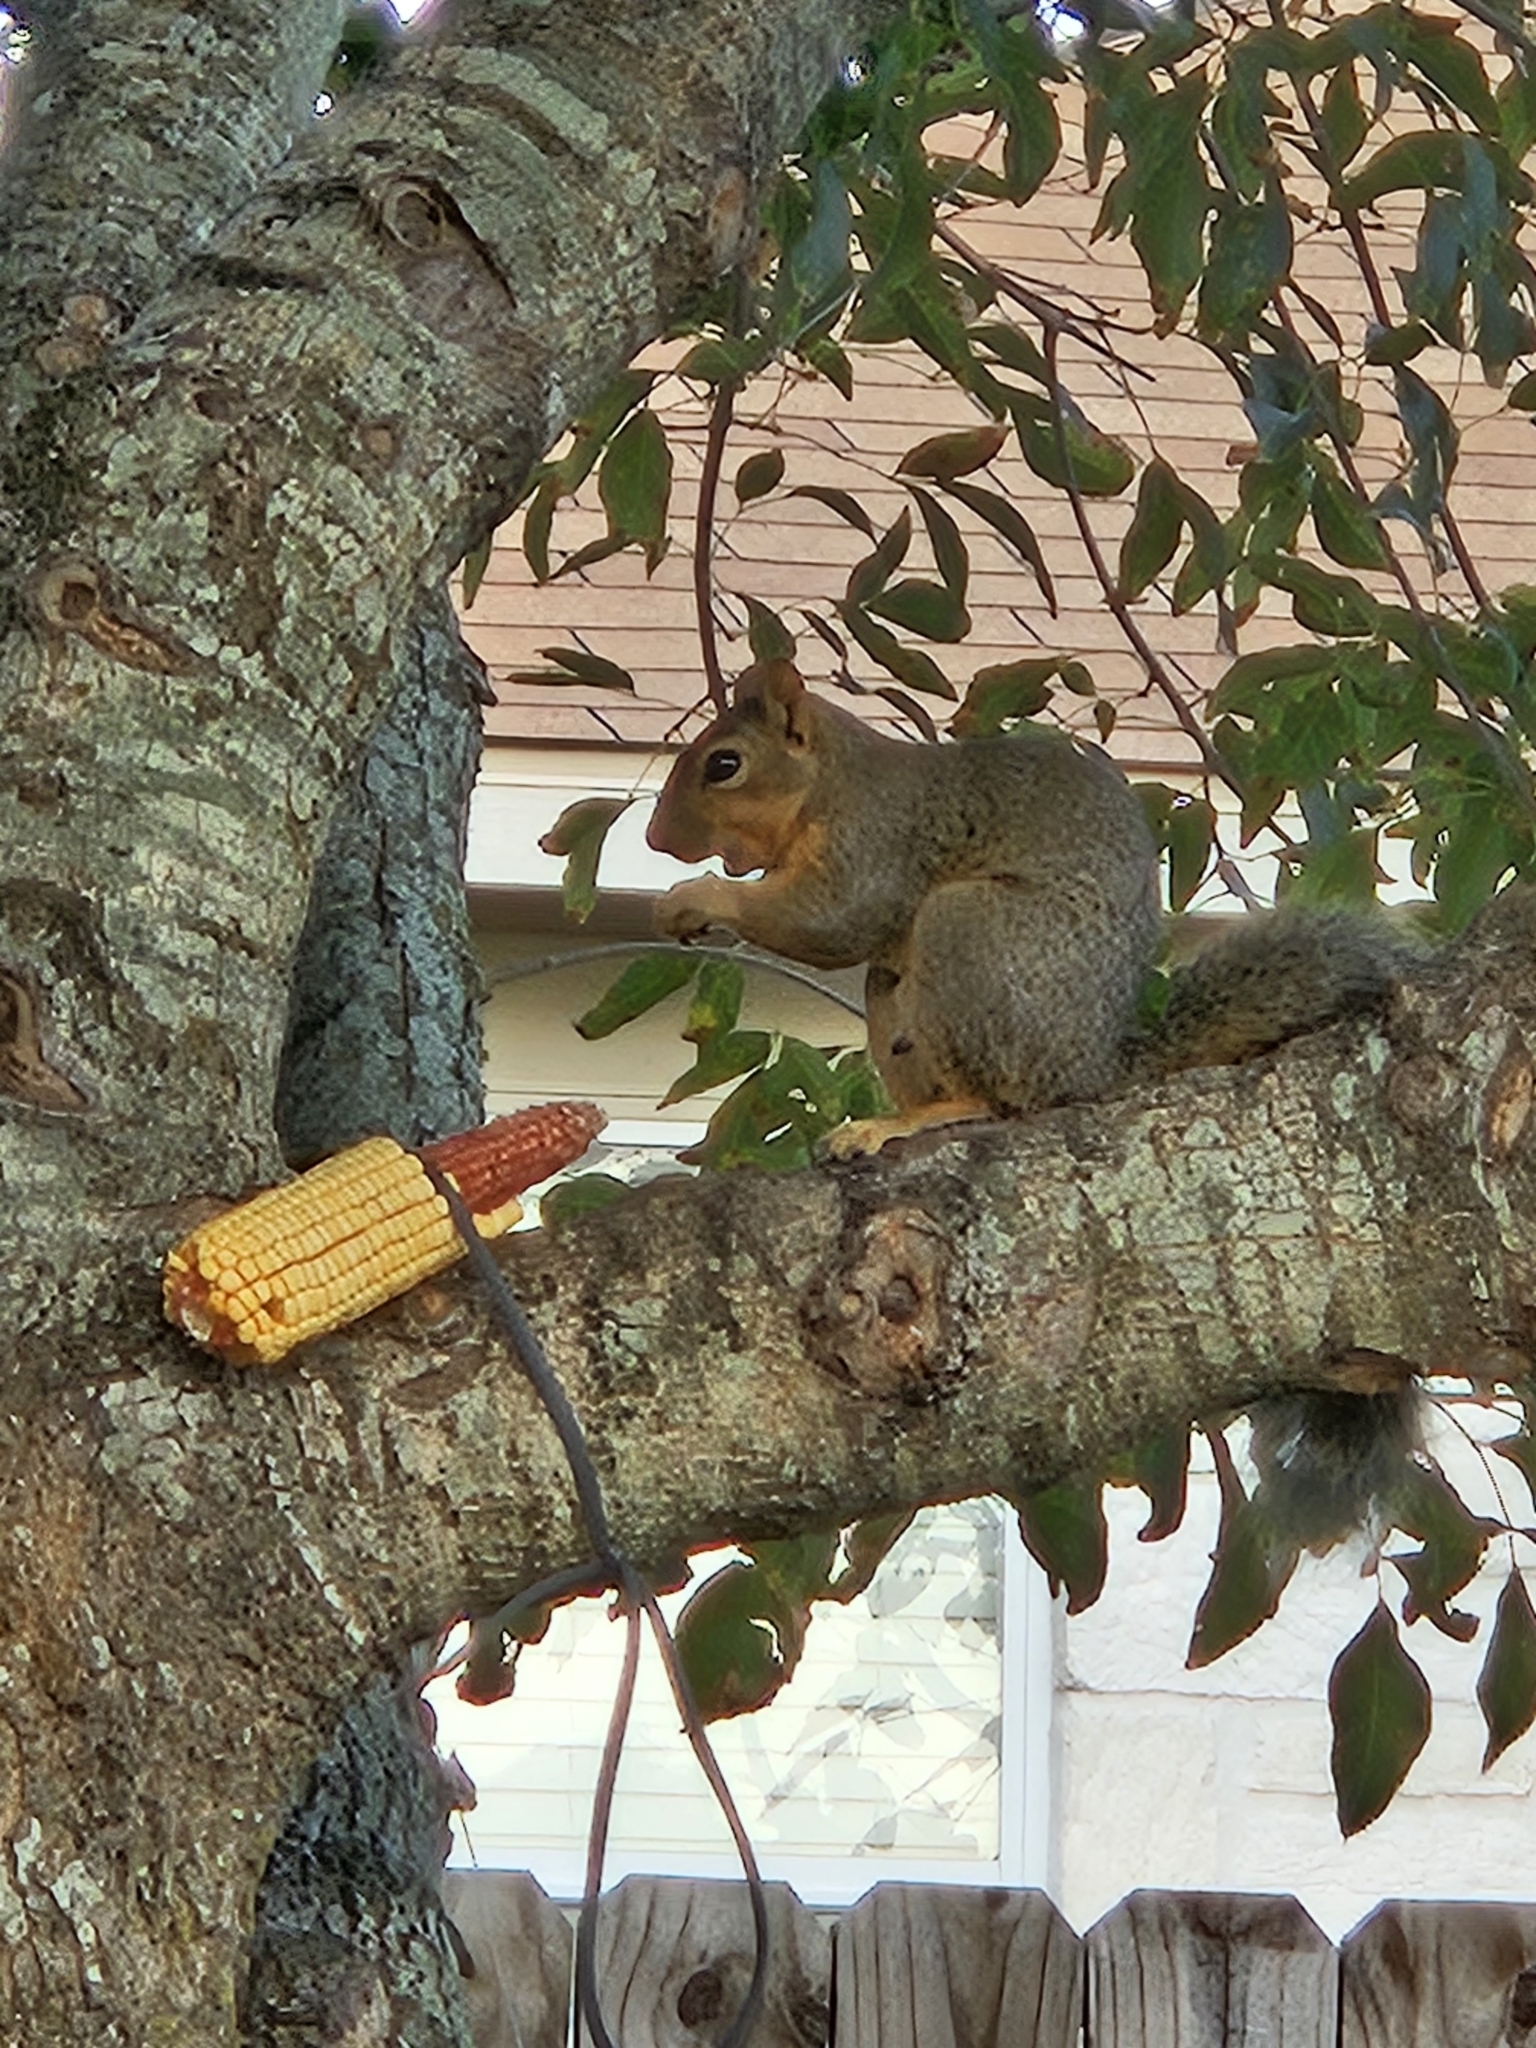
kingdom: Animalia
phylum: Chordata
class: Mammalia
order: Rodentia
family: Sciuridae
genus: Sciurus
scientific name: Sciurus niger
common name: Fox squirrel
